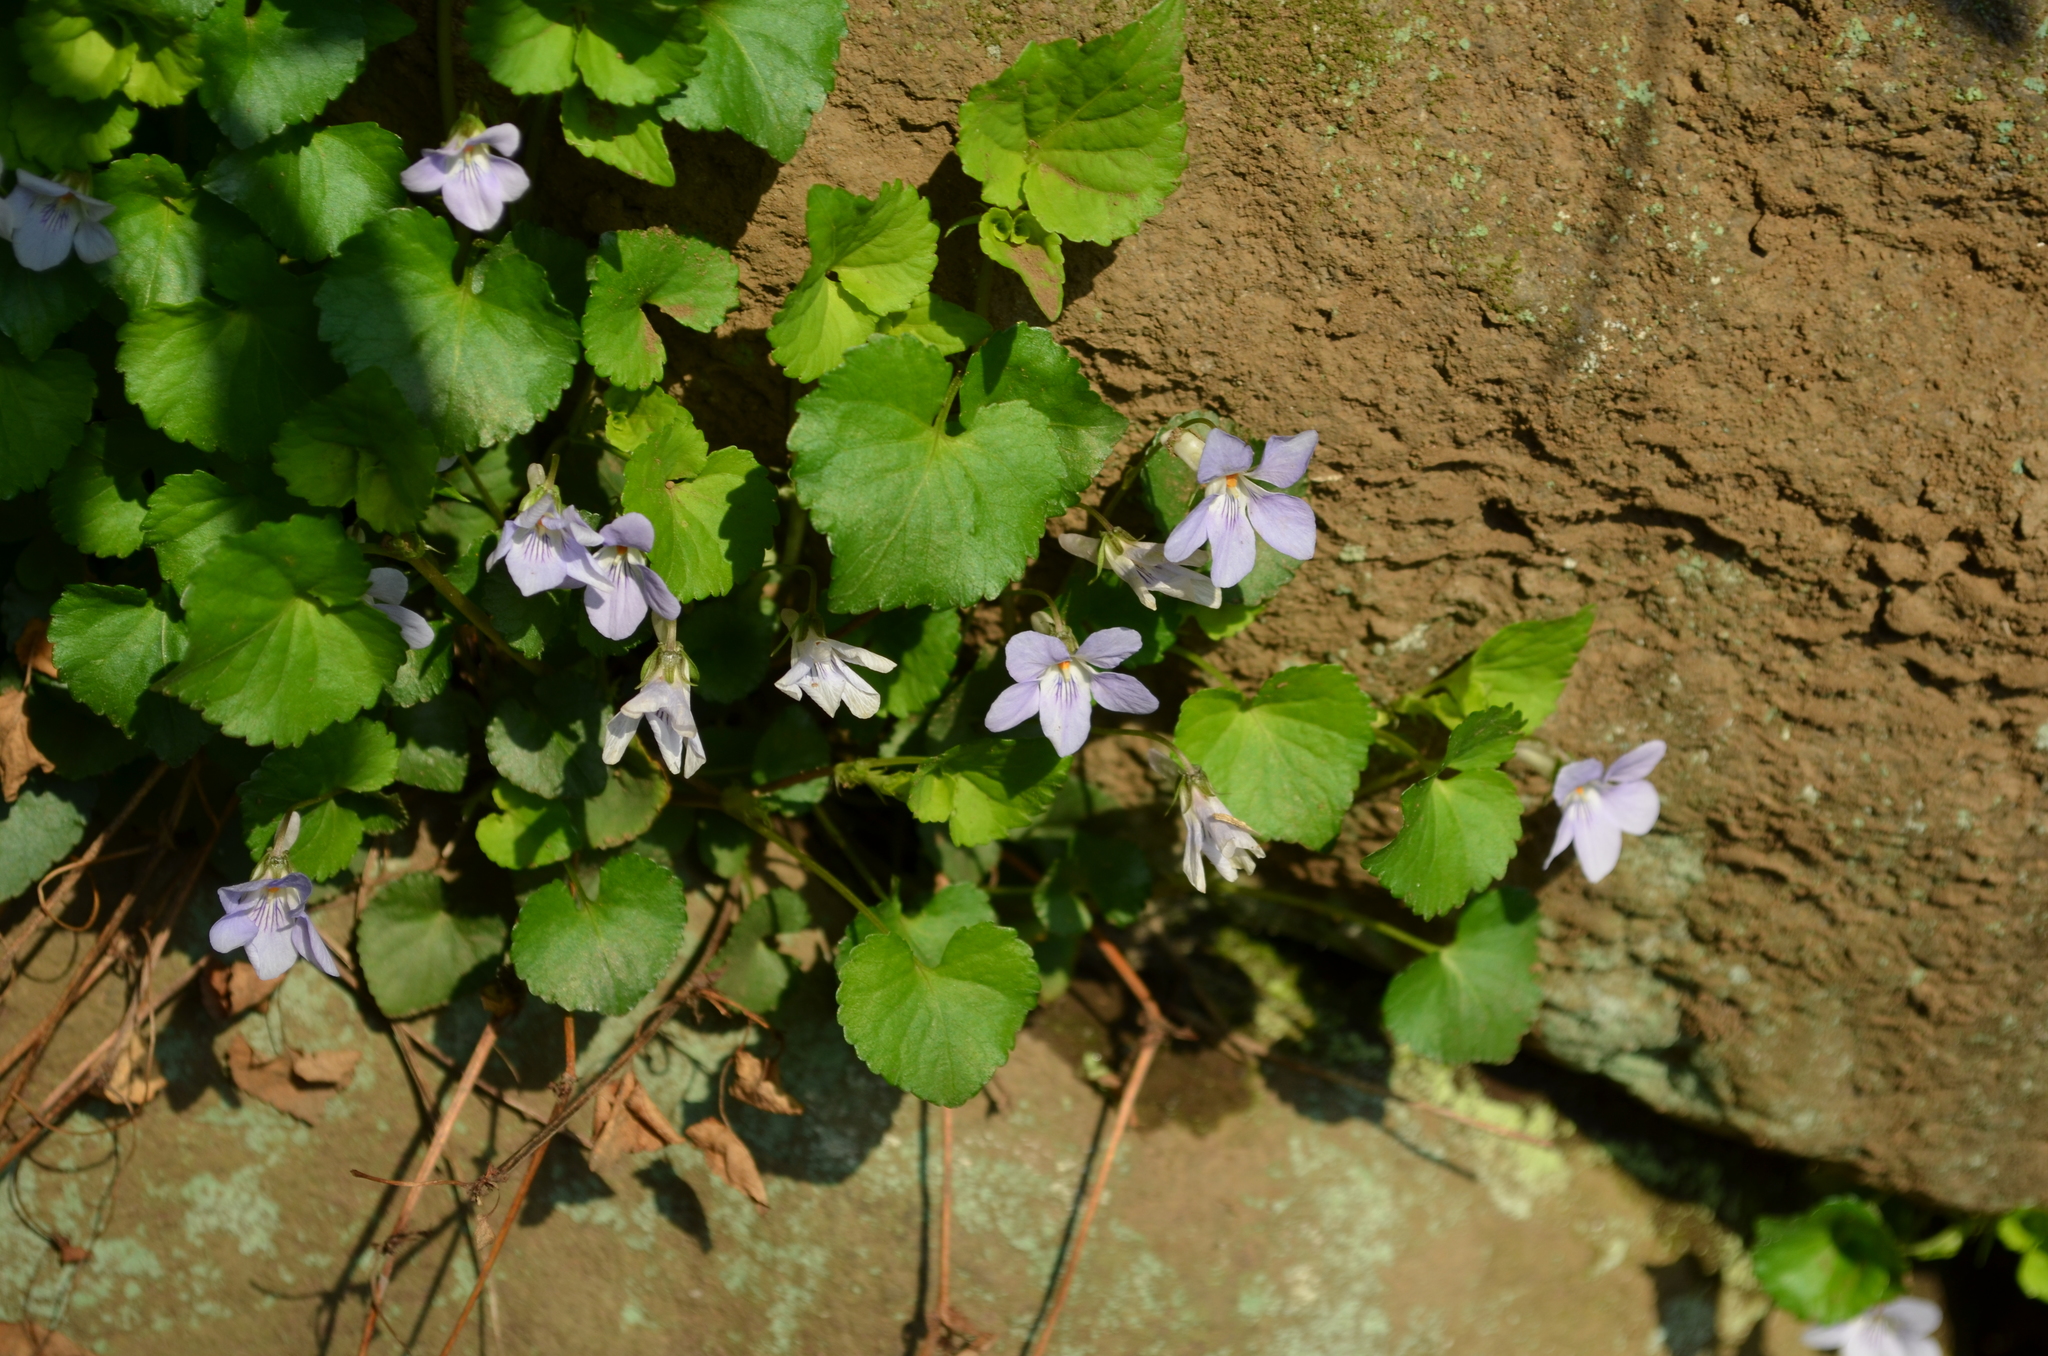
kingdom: Plantae
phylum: Tracheophyta
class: Magnoliopsida
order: Malpighiales
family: Violaceae
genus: Viola
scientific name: Viola grypoceras
